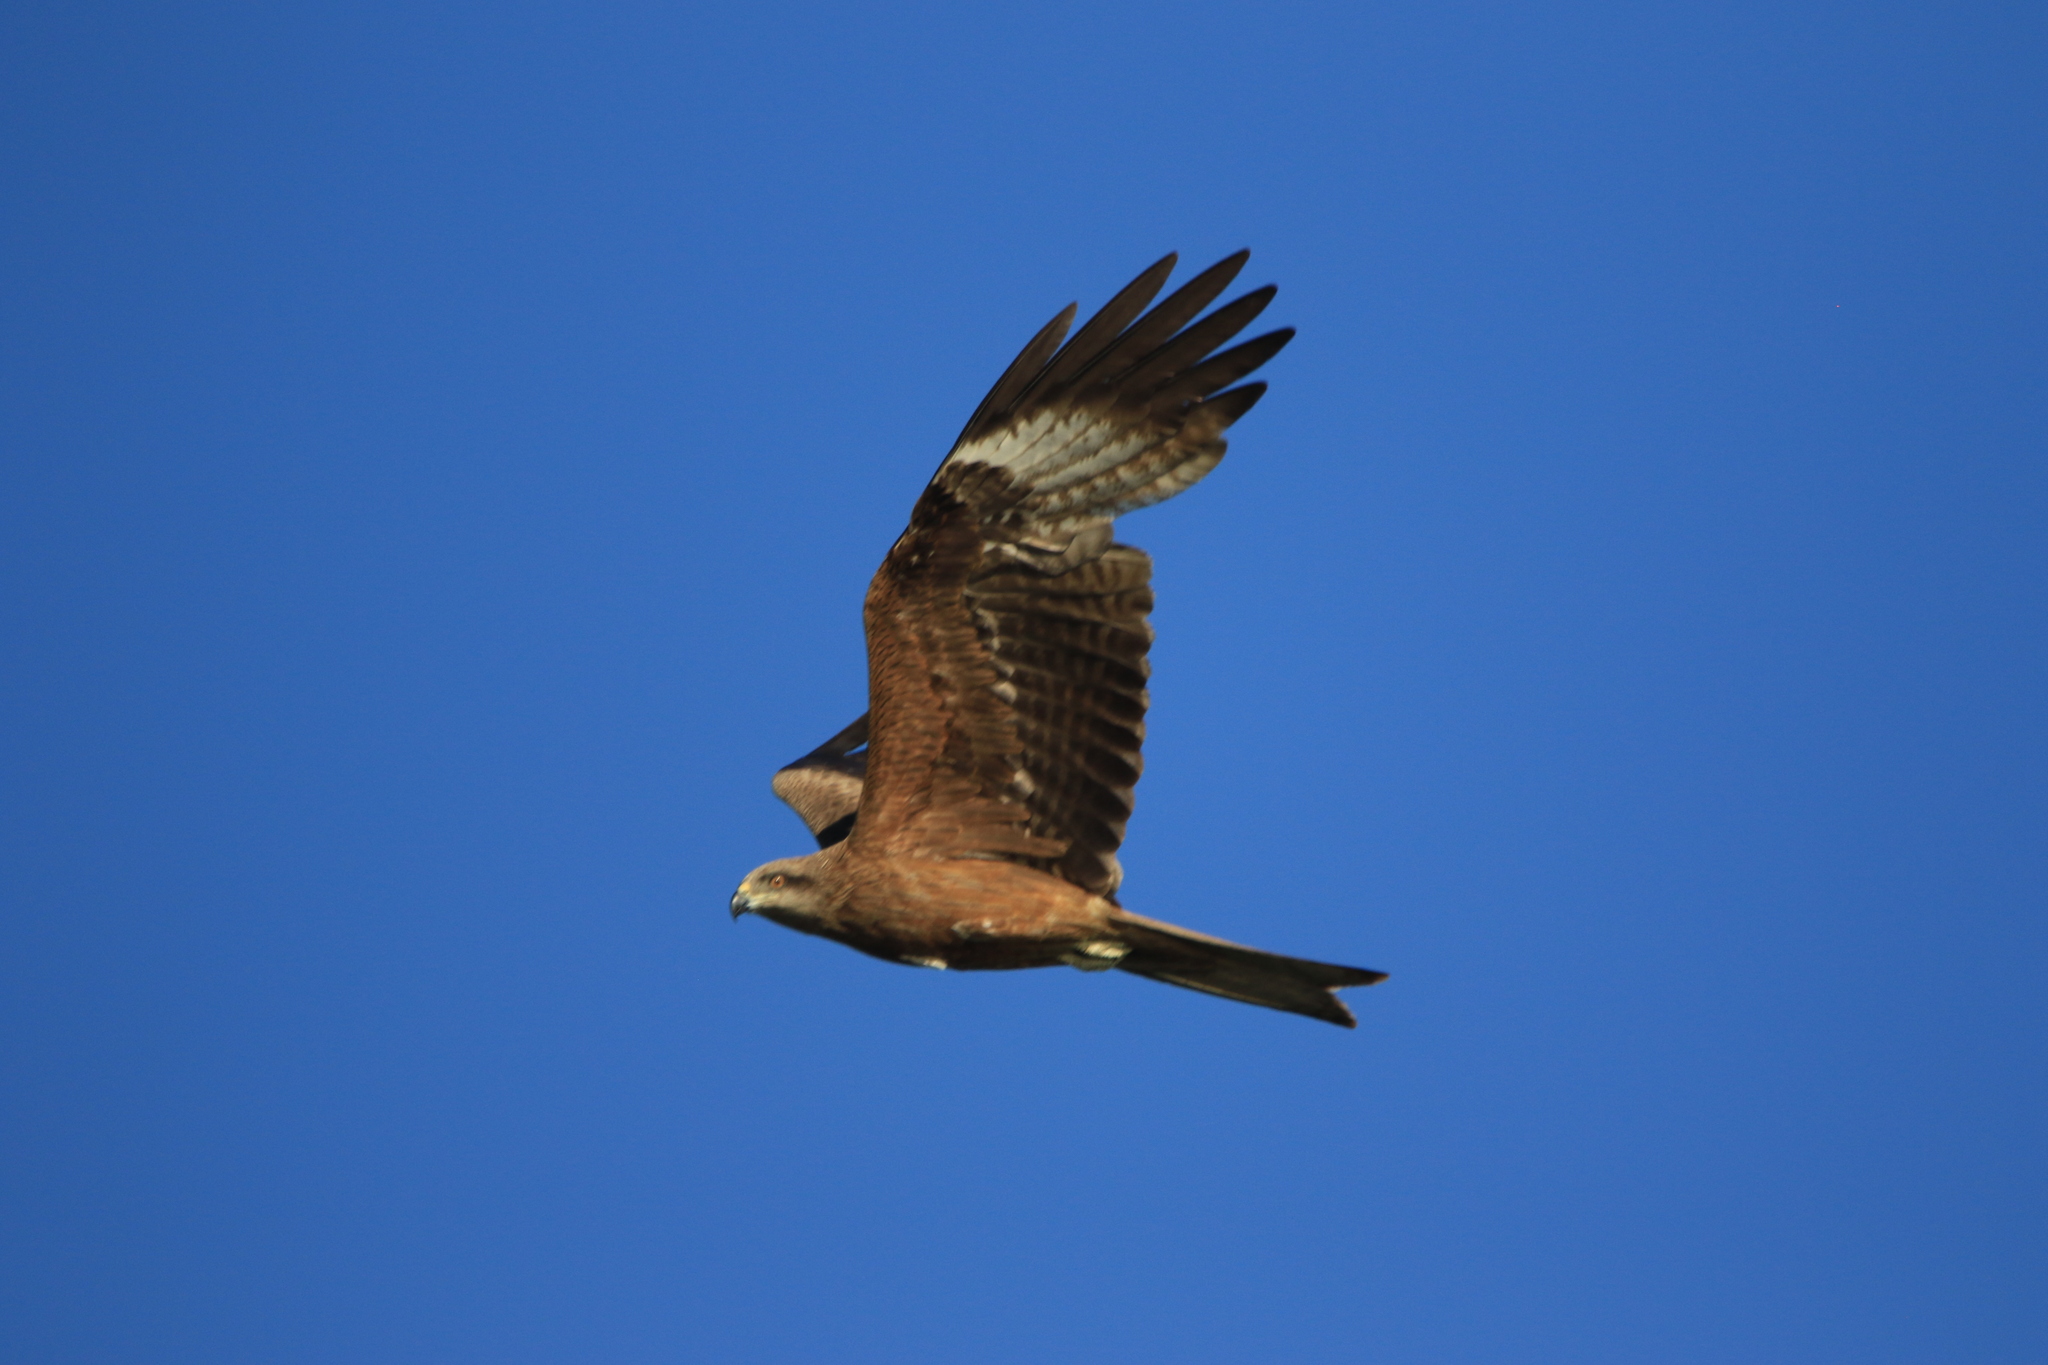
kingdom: Animalia
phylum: Chordata
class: Aves
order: Accipitriformes
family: Accipitridae
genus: Milvus
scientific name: Milvus migrans
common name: Black kite
